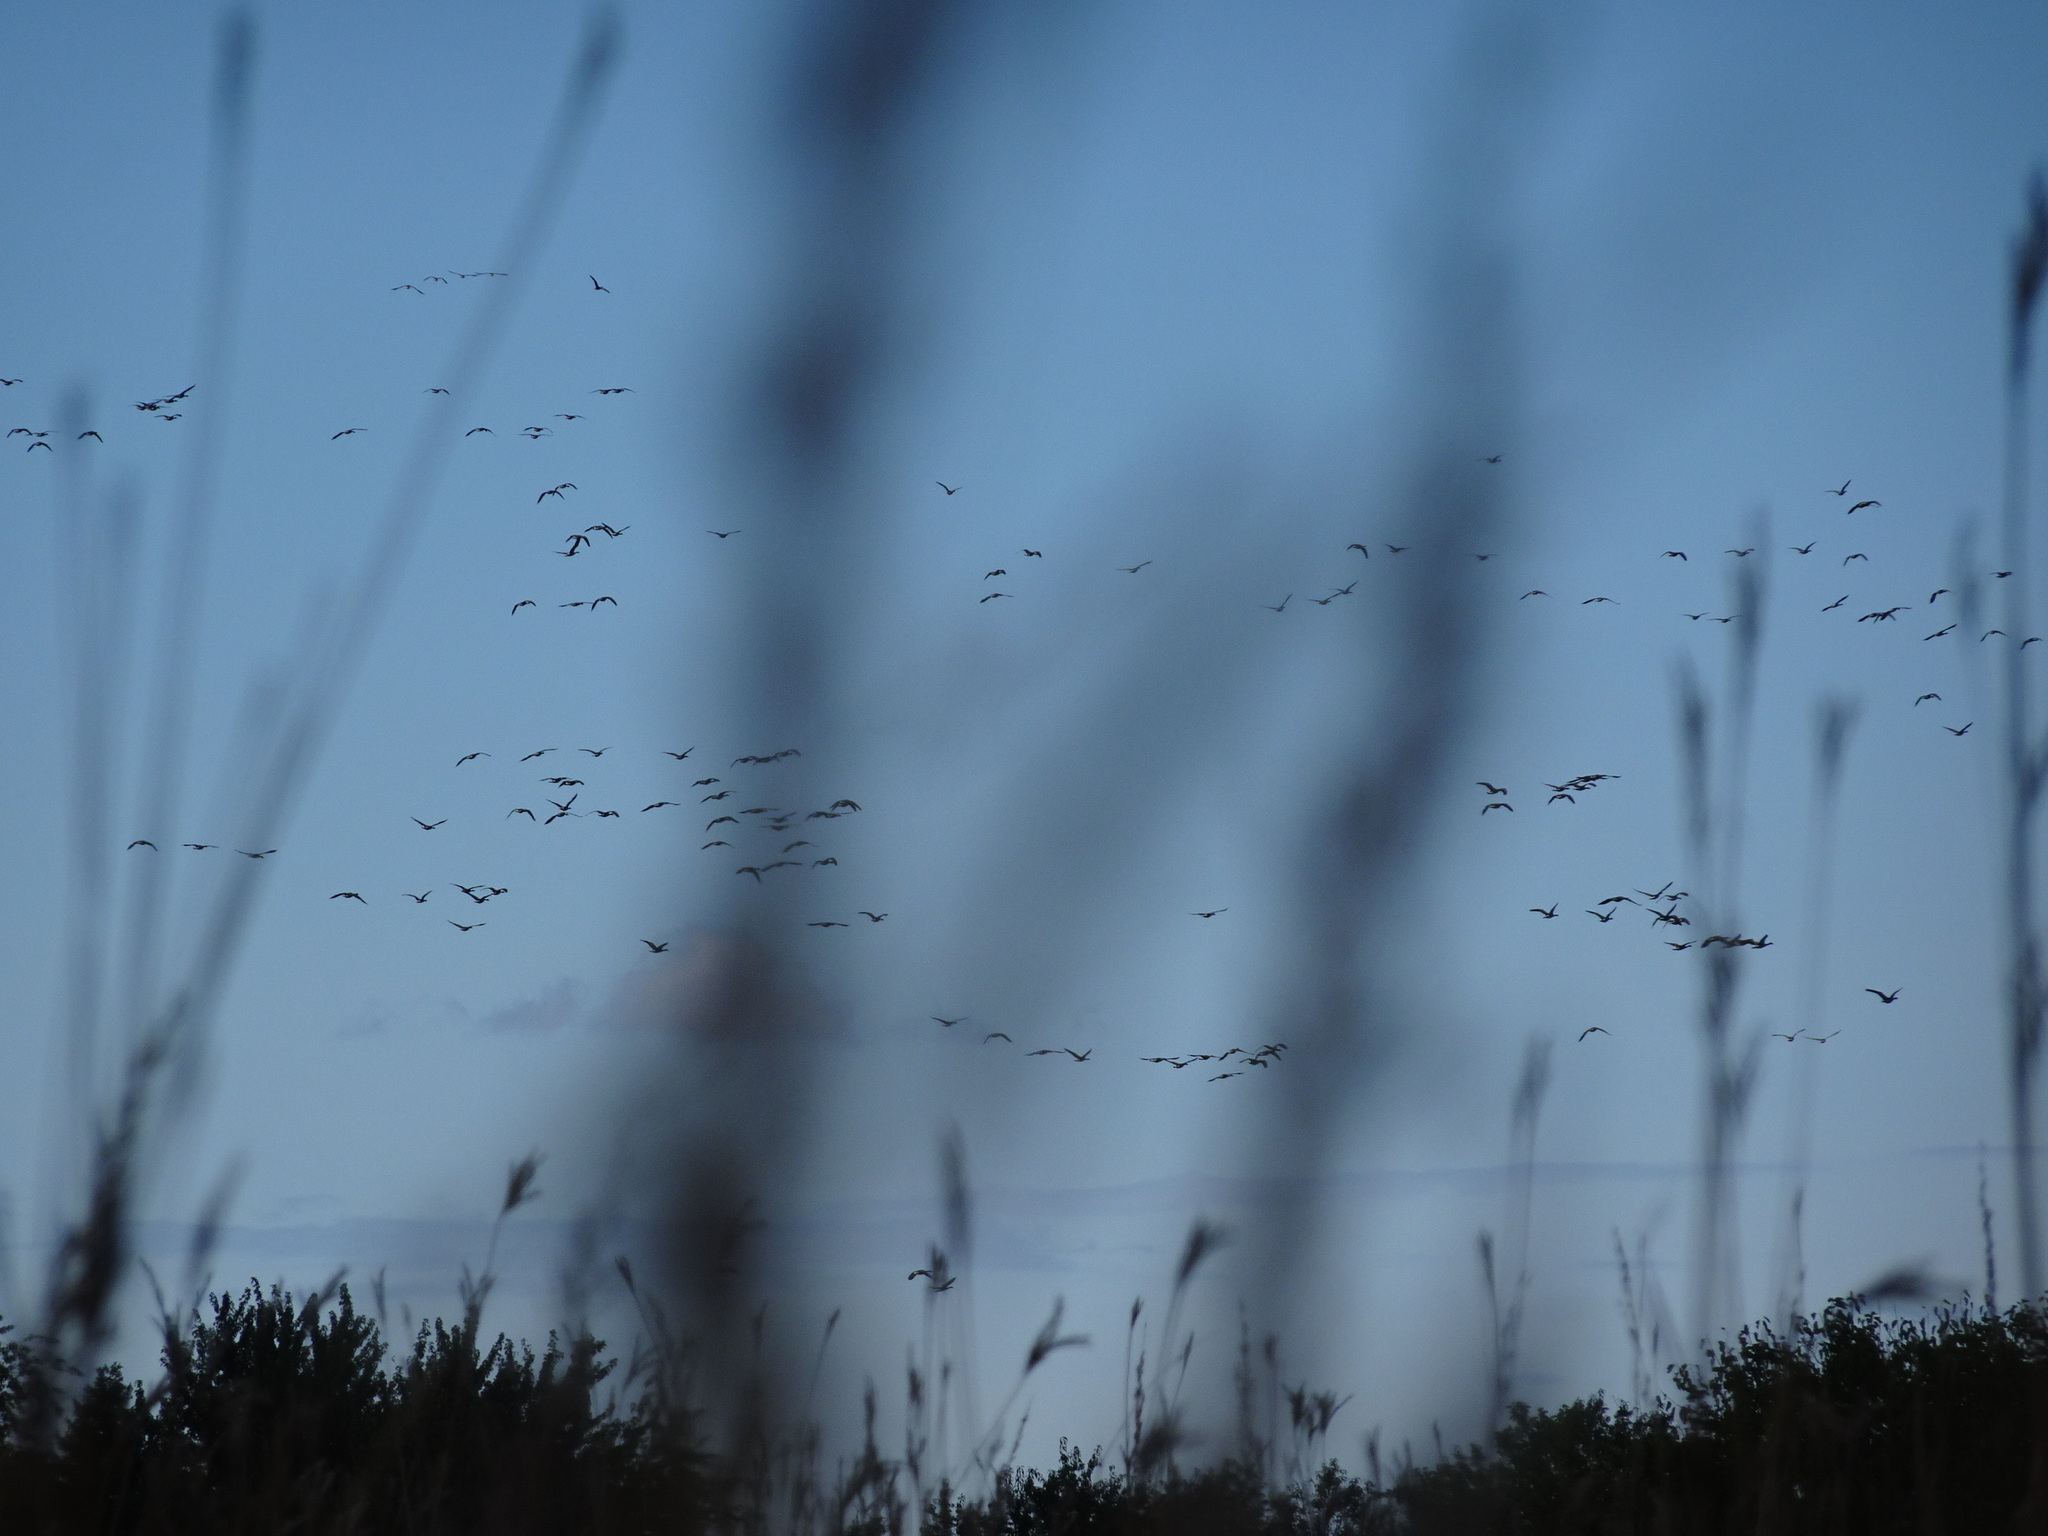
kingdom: Animalia
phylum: Chordata
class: Aves
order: Anseriformes
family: Anatidae
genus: Branta
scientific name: Branta canadensis
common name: Canada goose
